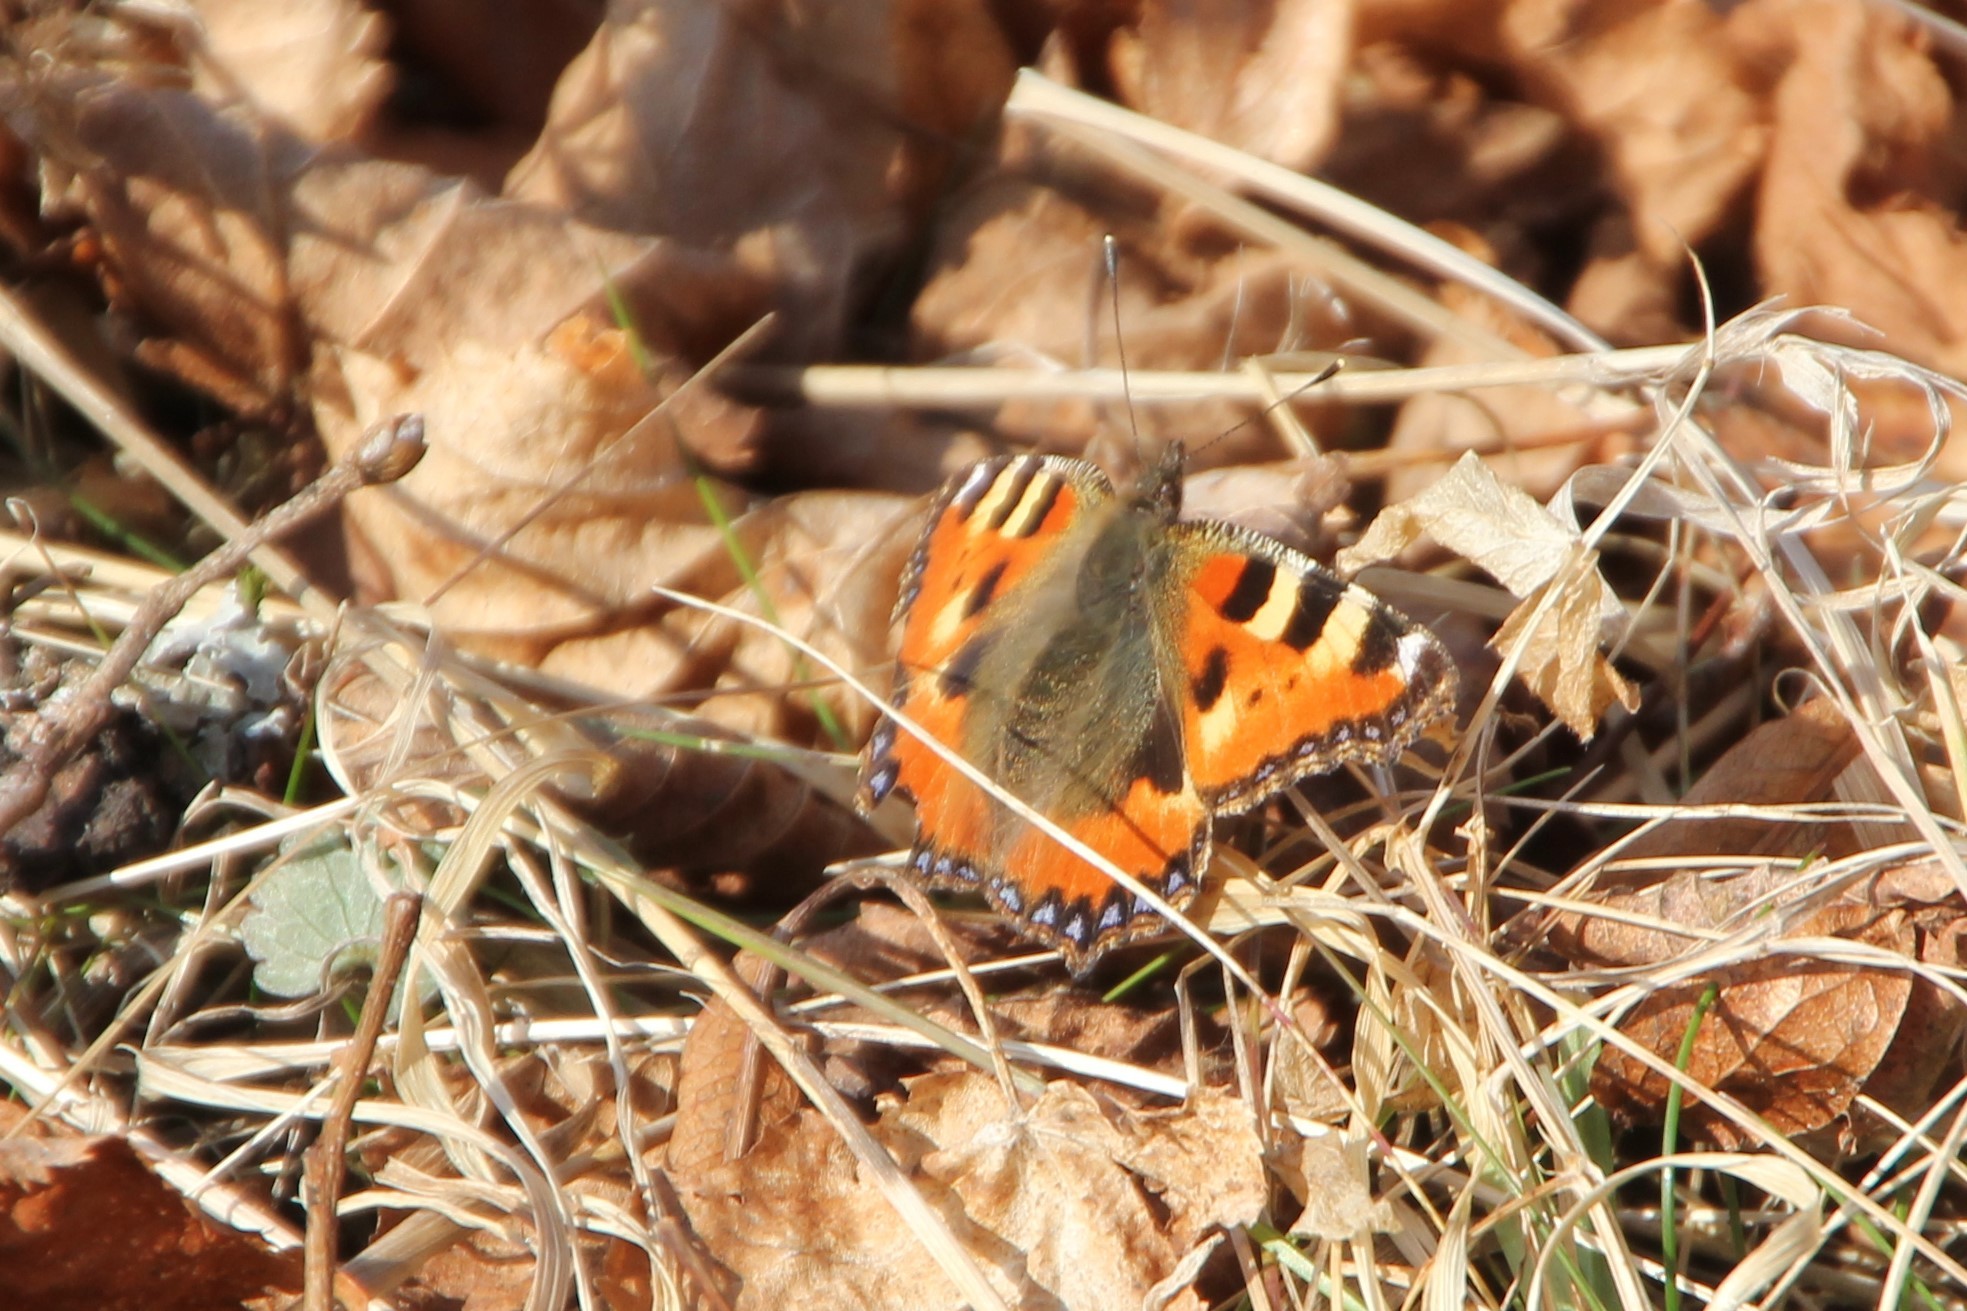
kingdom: Animalia
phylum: Arthropoda
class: Insecta
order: Lepidoptera
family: Nymphalidae
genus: Aglais
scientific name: Aglais urticae
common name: Small tortoiseshell
